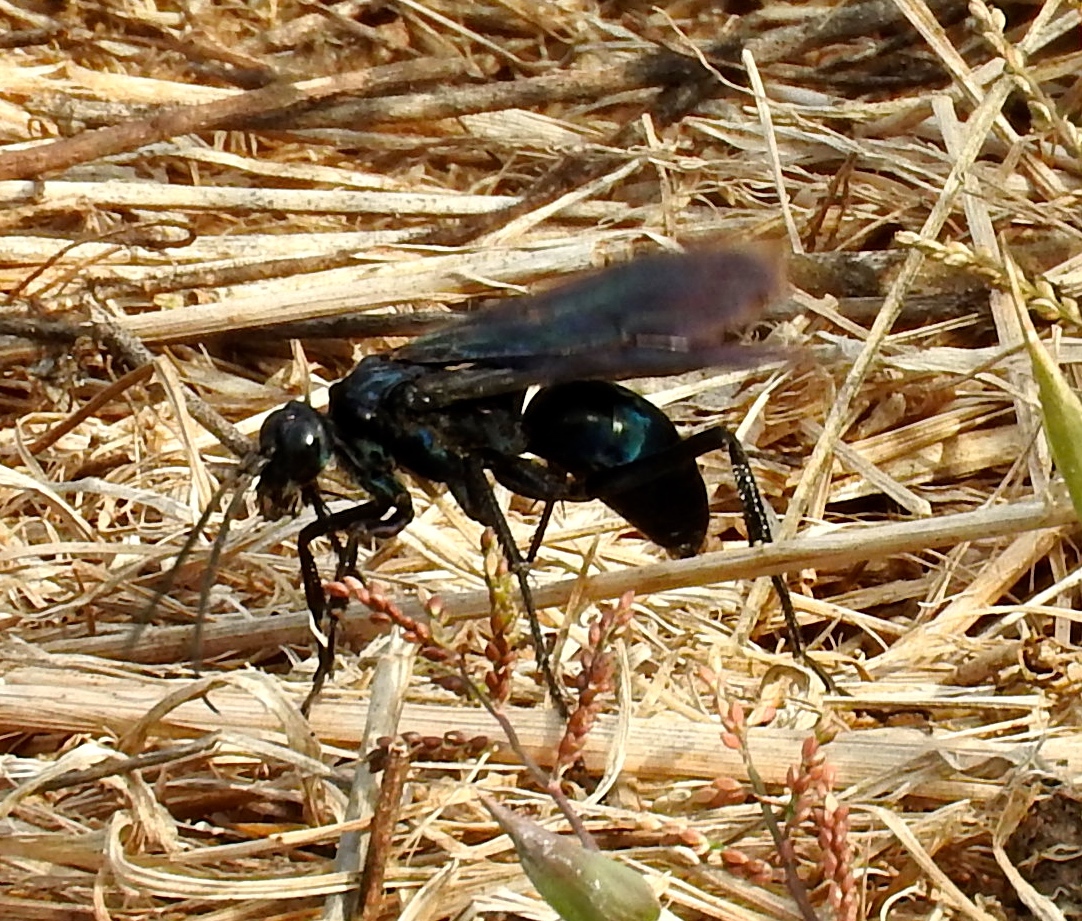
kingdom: Animalia
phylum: Arthropoda
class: Insecta
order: Hymenoptera
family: Pompilidae
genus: Pepsis
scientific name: Pepsis mexicana
